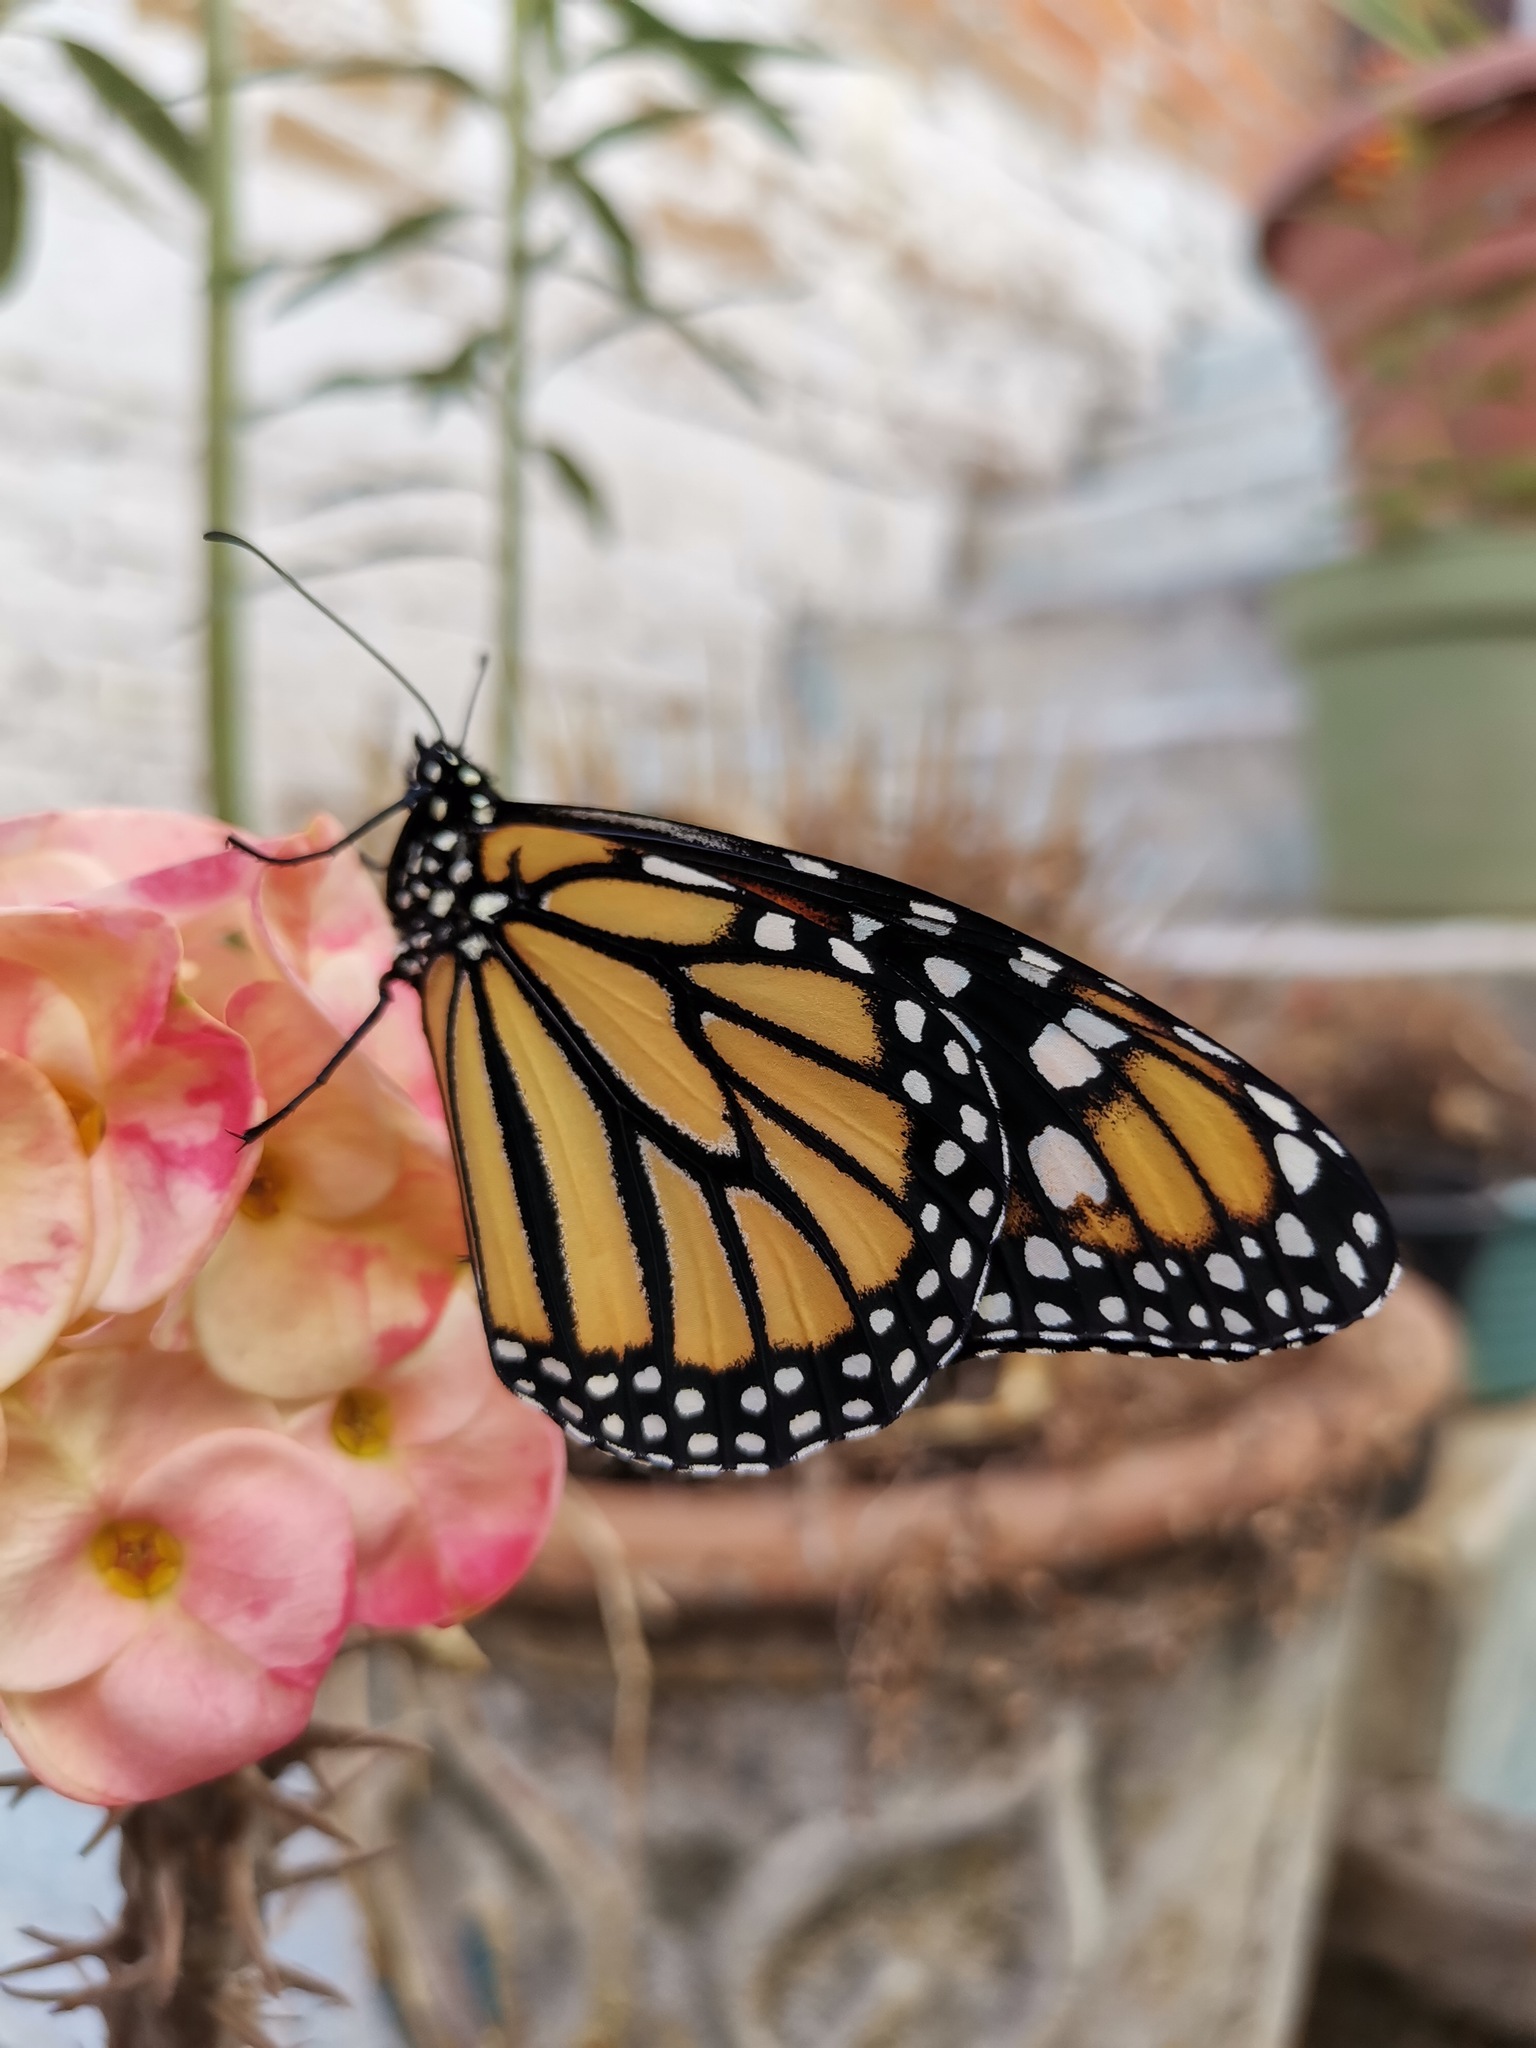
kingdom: Animalia
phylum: Arthropoda
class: Insecta
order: Lepidoptera
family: Nymphalidae
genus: Danaus
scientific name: Danaus plexippus
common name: Monarch
